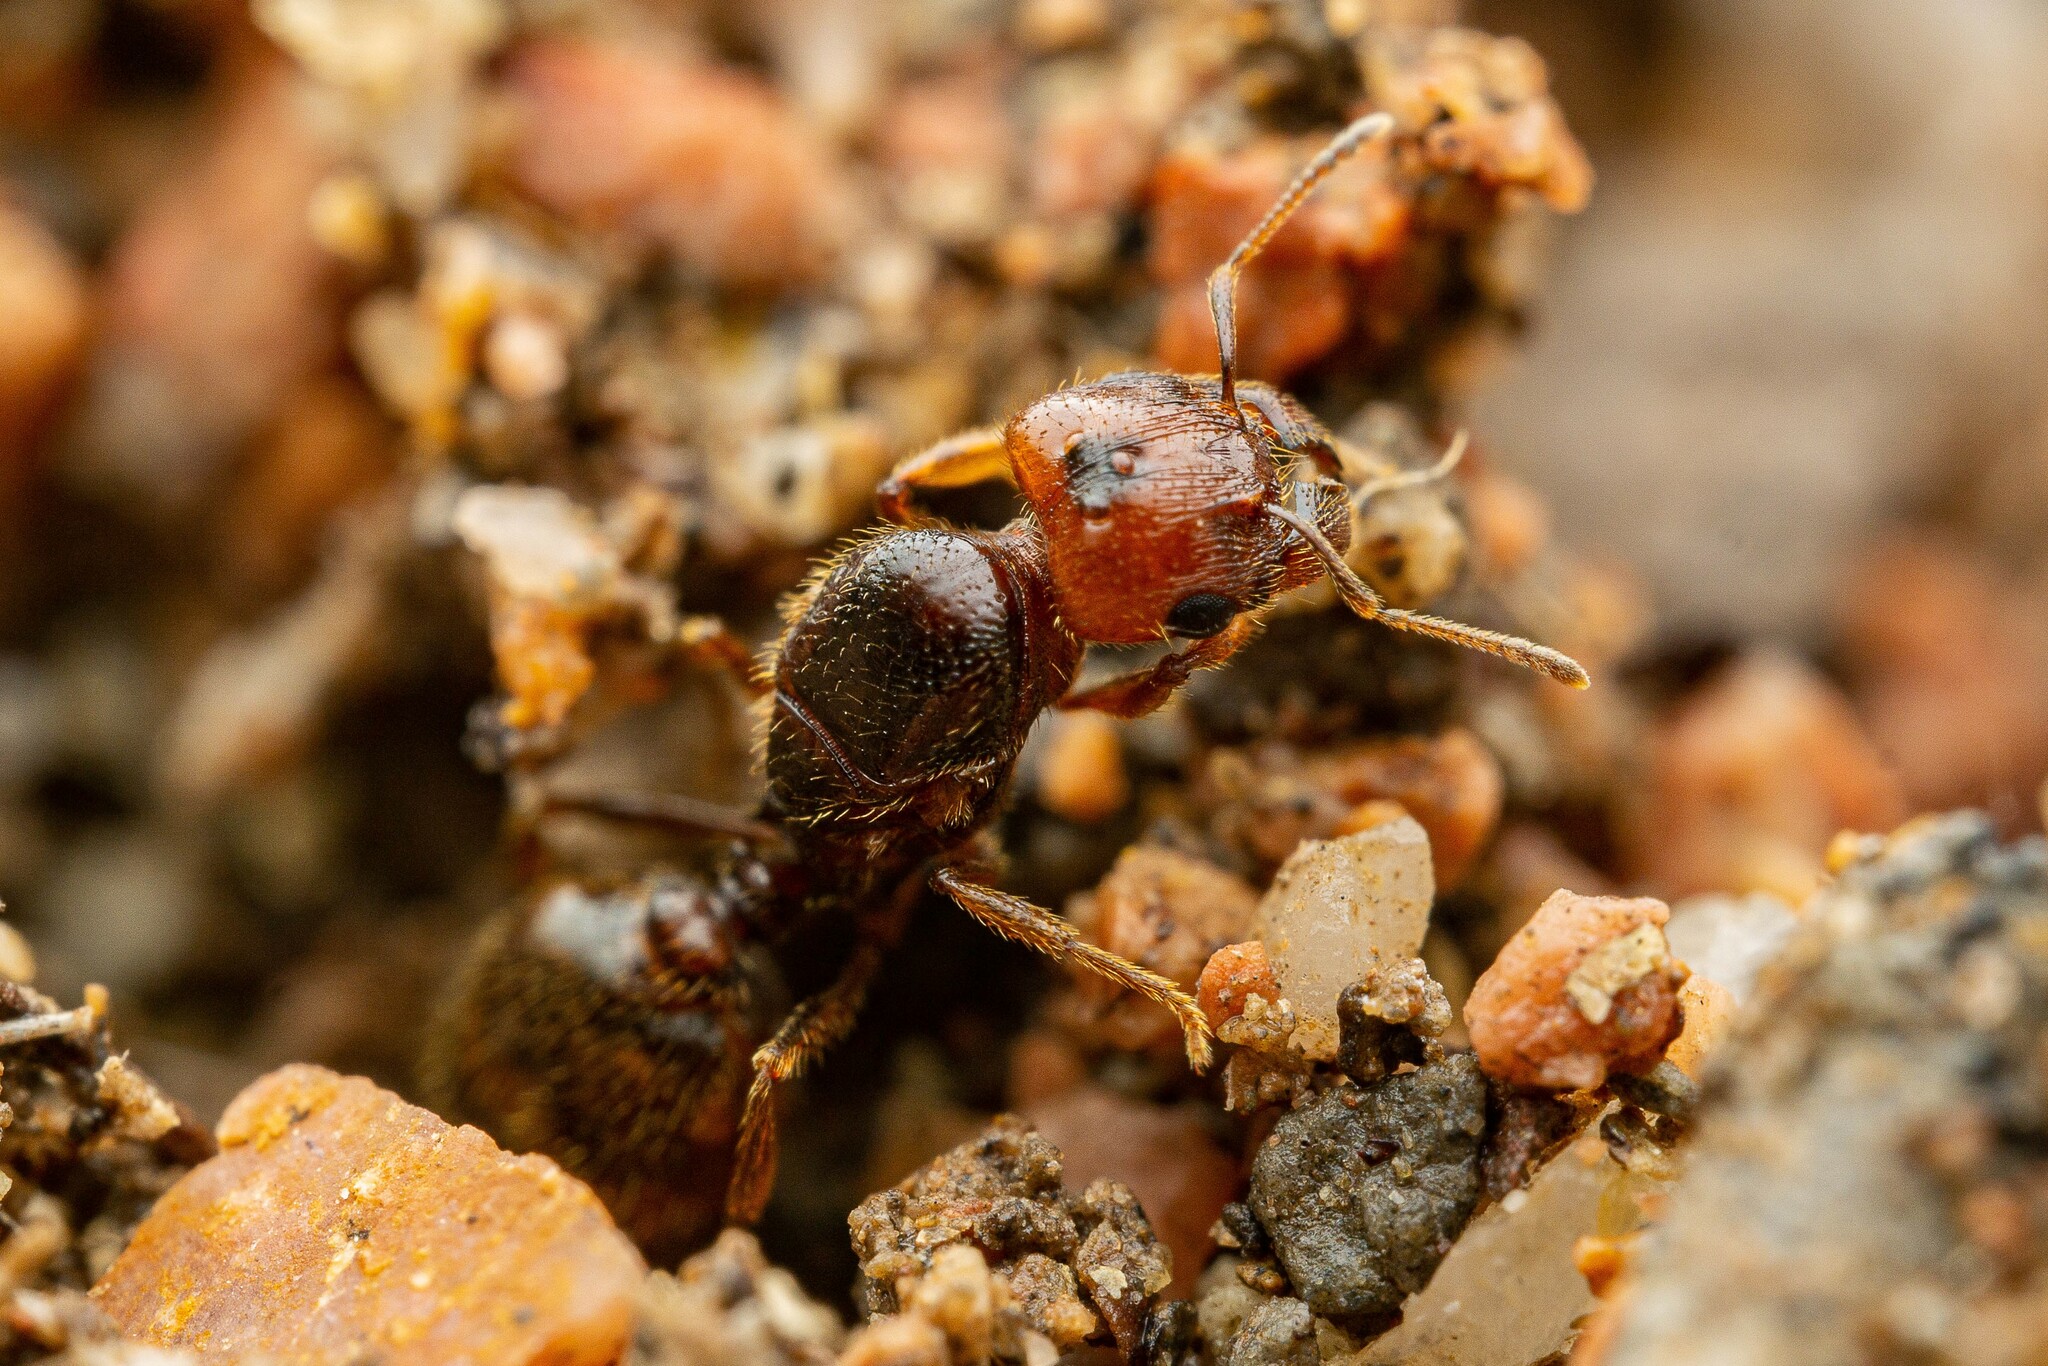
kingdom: Animalia
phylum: Arthropoda
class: Insecta
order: Hymenoptera
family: Formicidae
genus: Pheidole
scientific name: Pheidole xerophila
